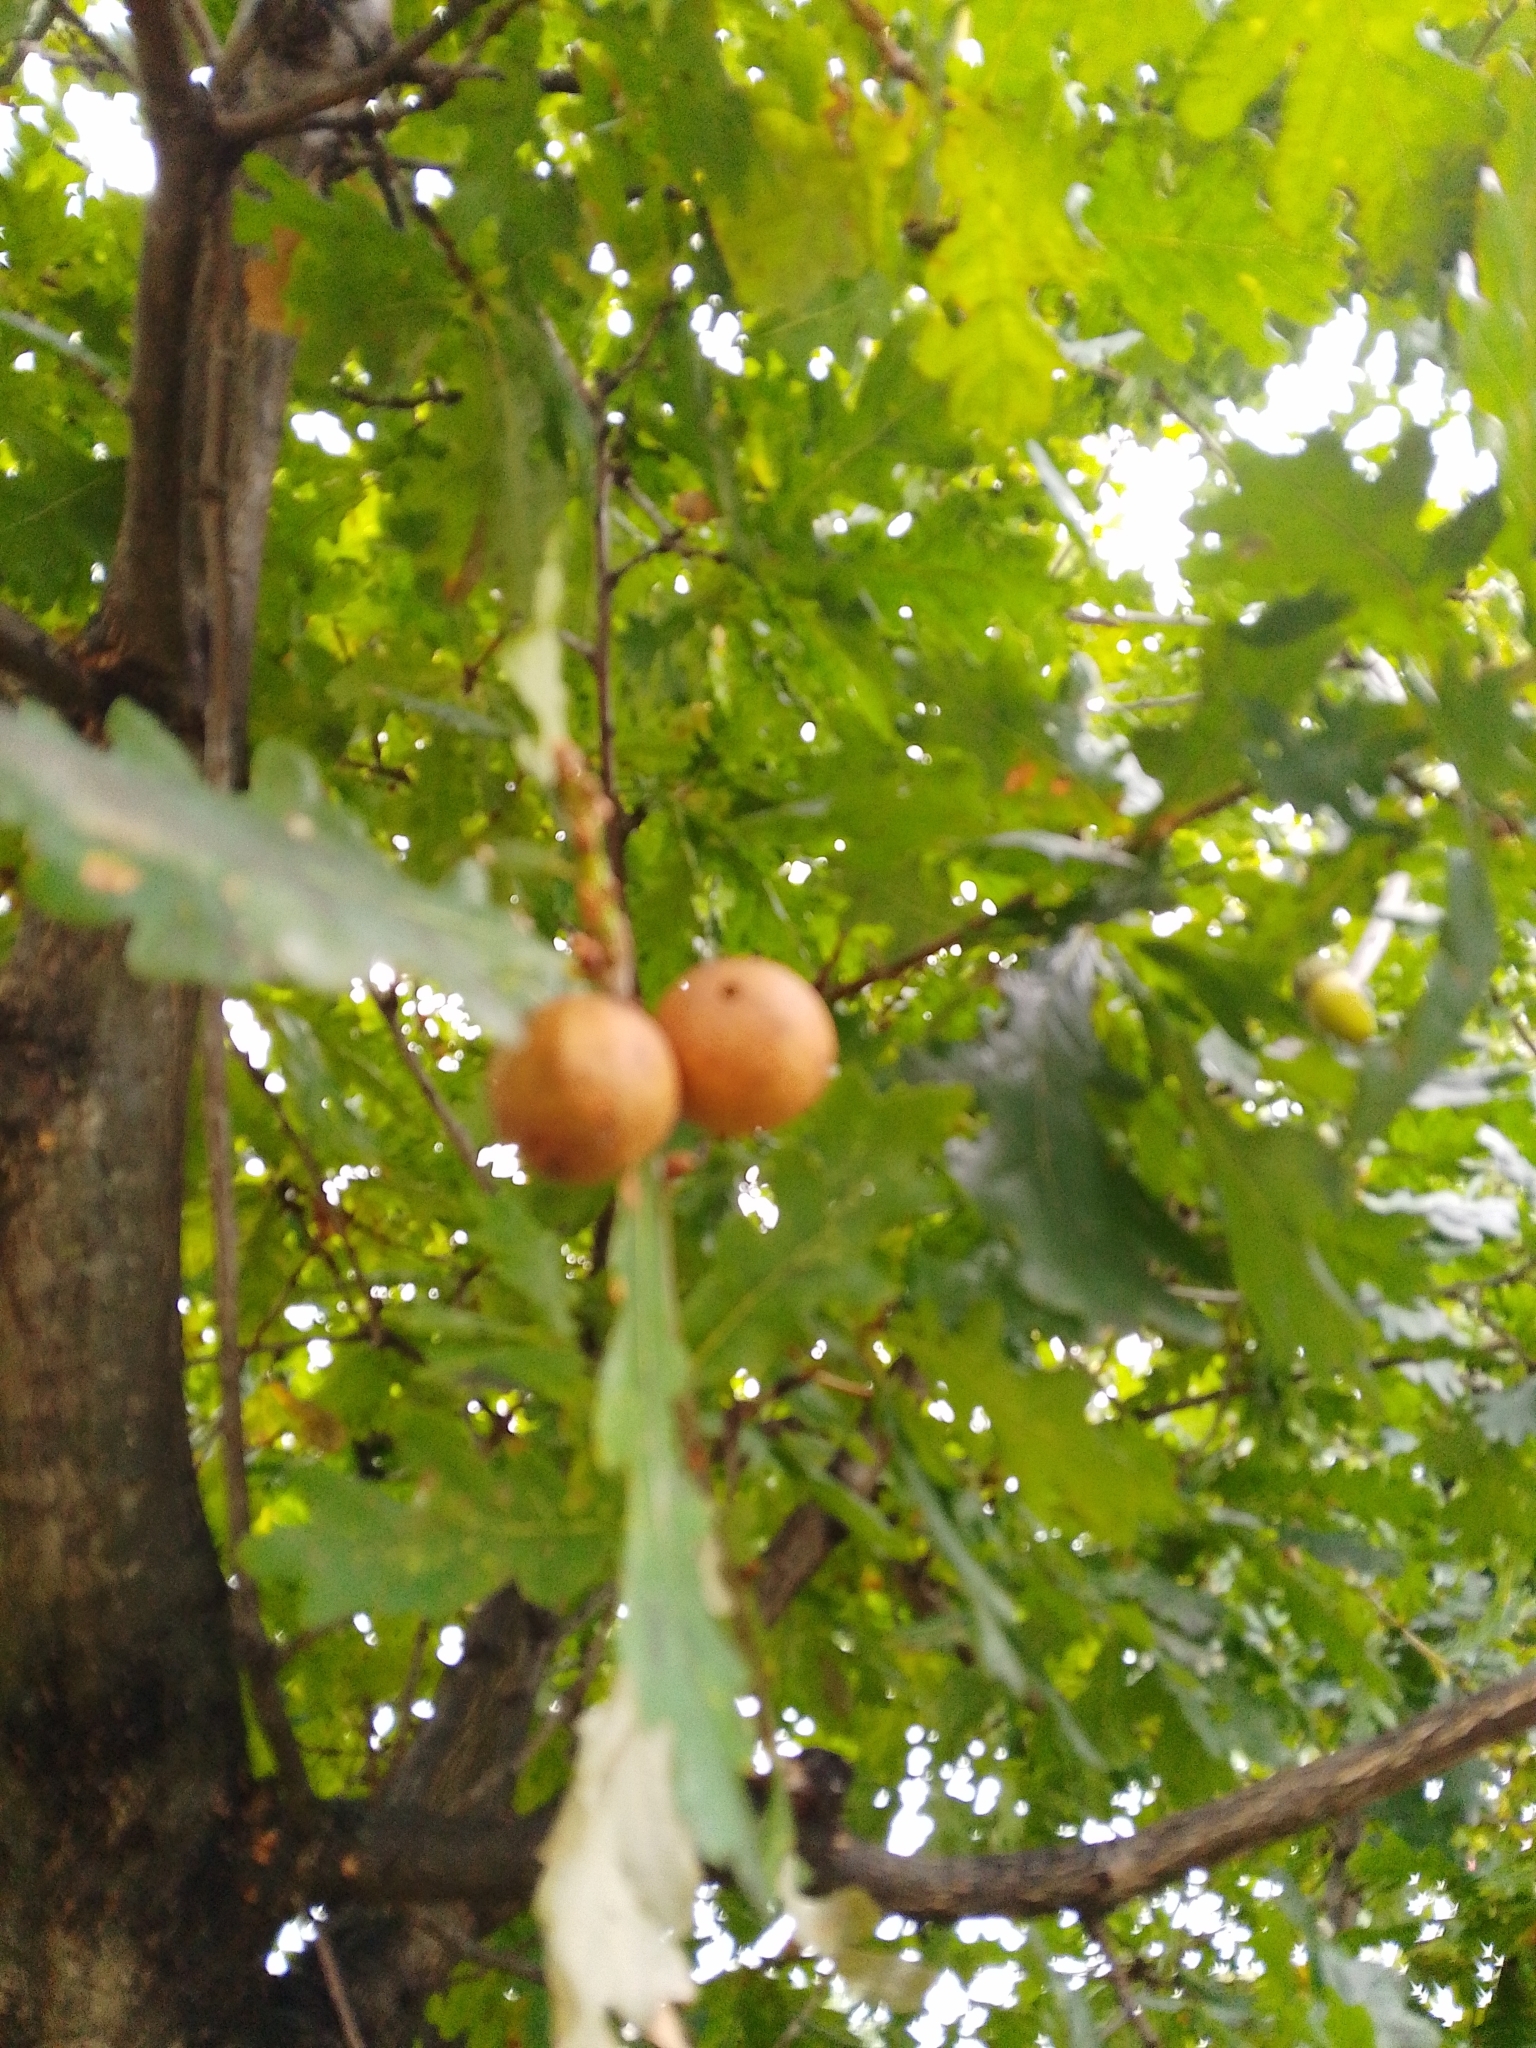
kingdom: Animalia
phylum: Arthropoda
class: Insecta
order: Hymenoptera
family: Cynipidae
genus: Andricus
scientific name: Andricus kollari
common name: Marble gall
